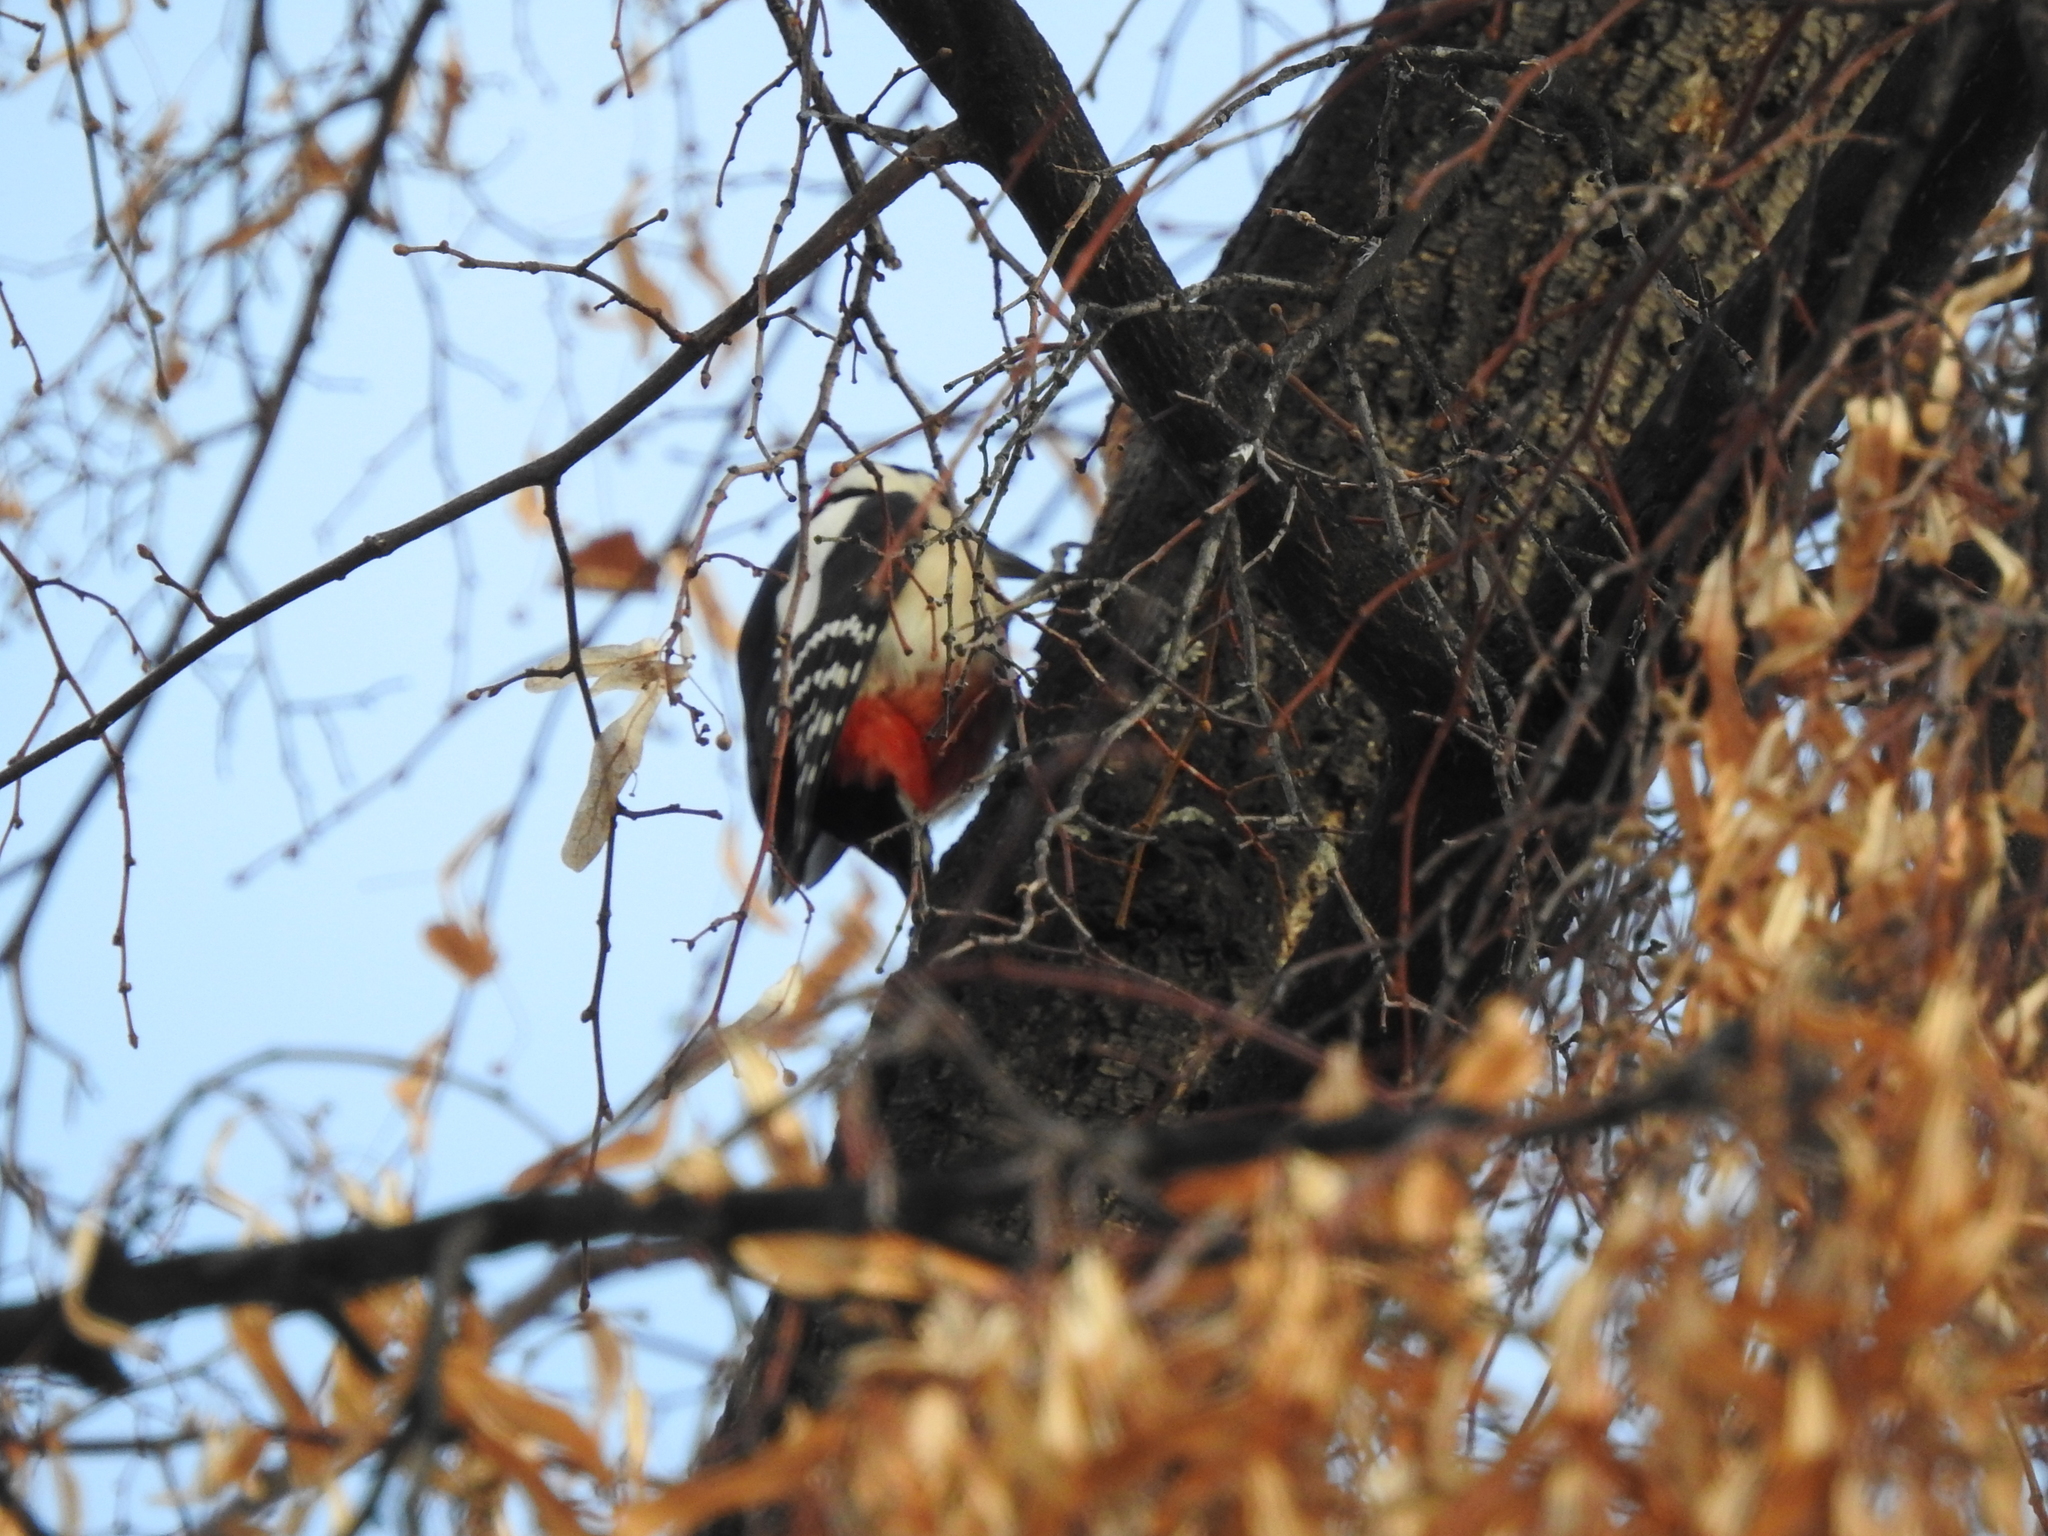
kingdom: Animalia
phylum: Chordata
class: Aves
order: Piciformes
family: Picidae
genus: Dendrocopos
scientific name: Dendrocopos major
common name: Great spotted woodpecker
